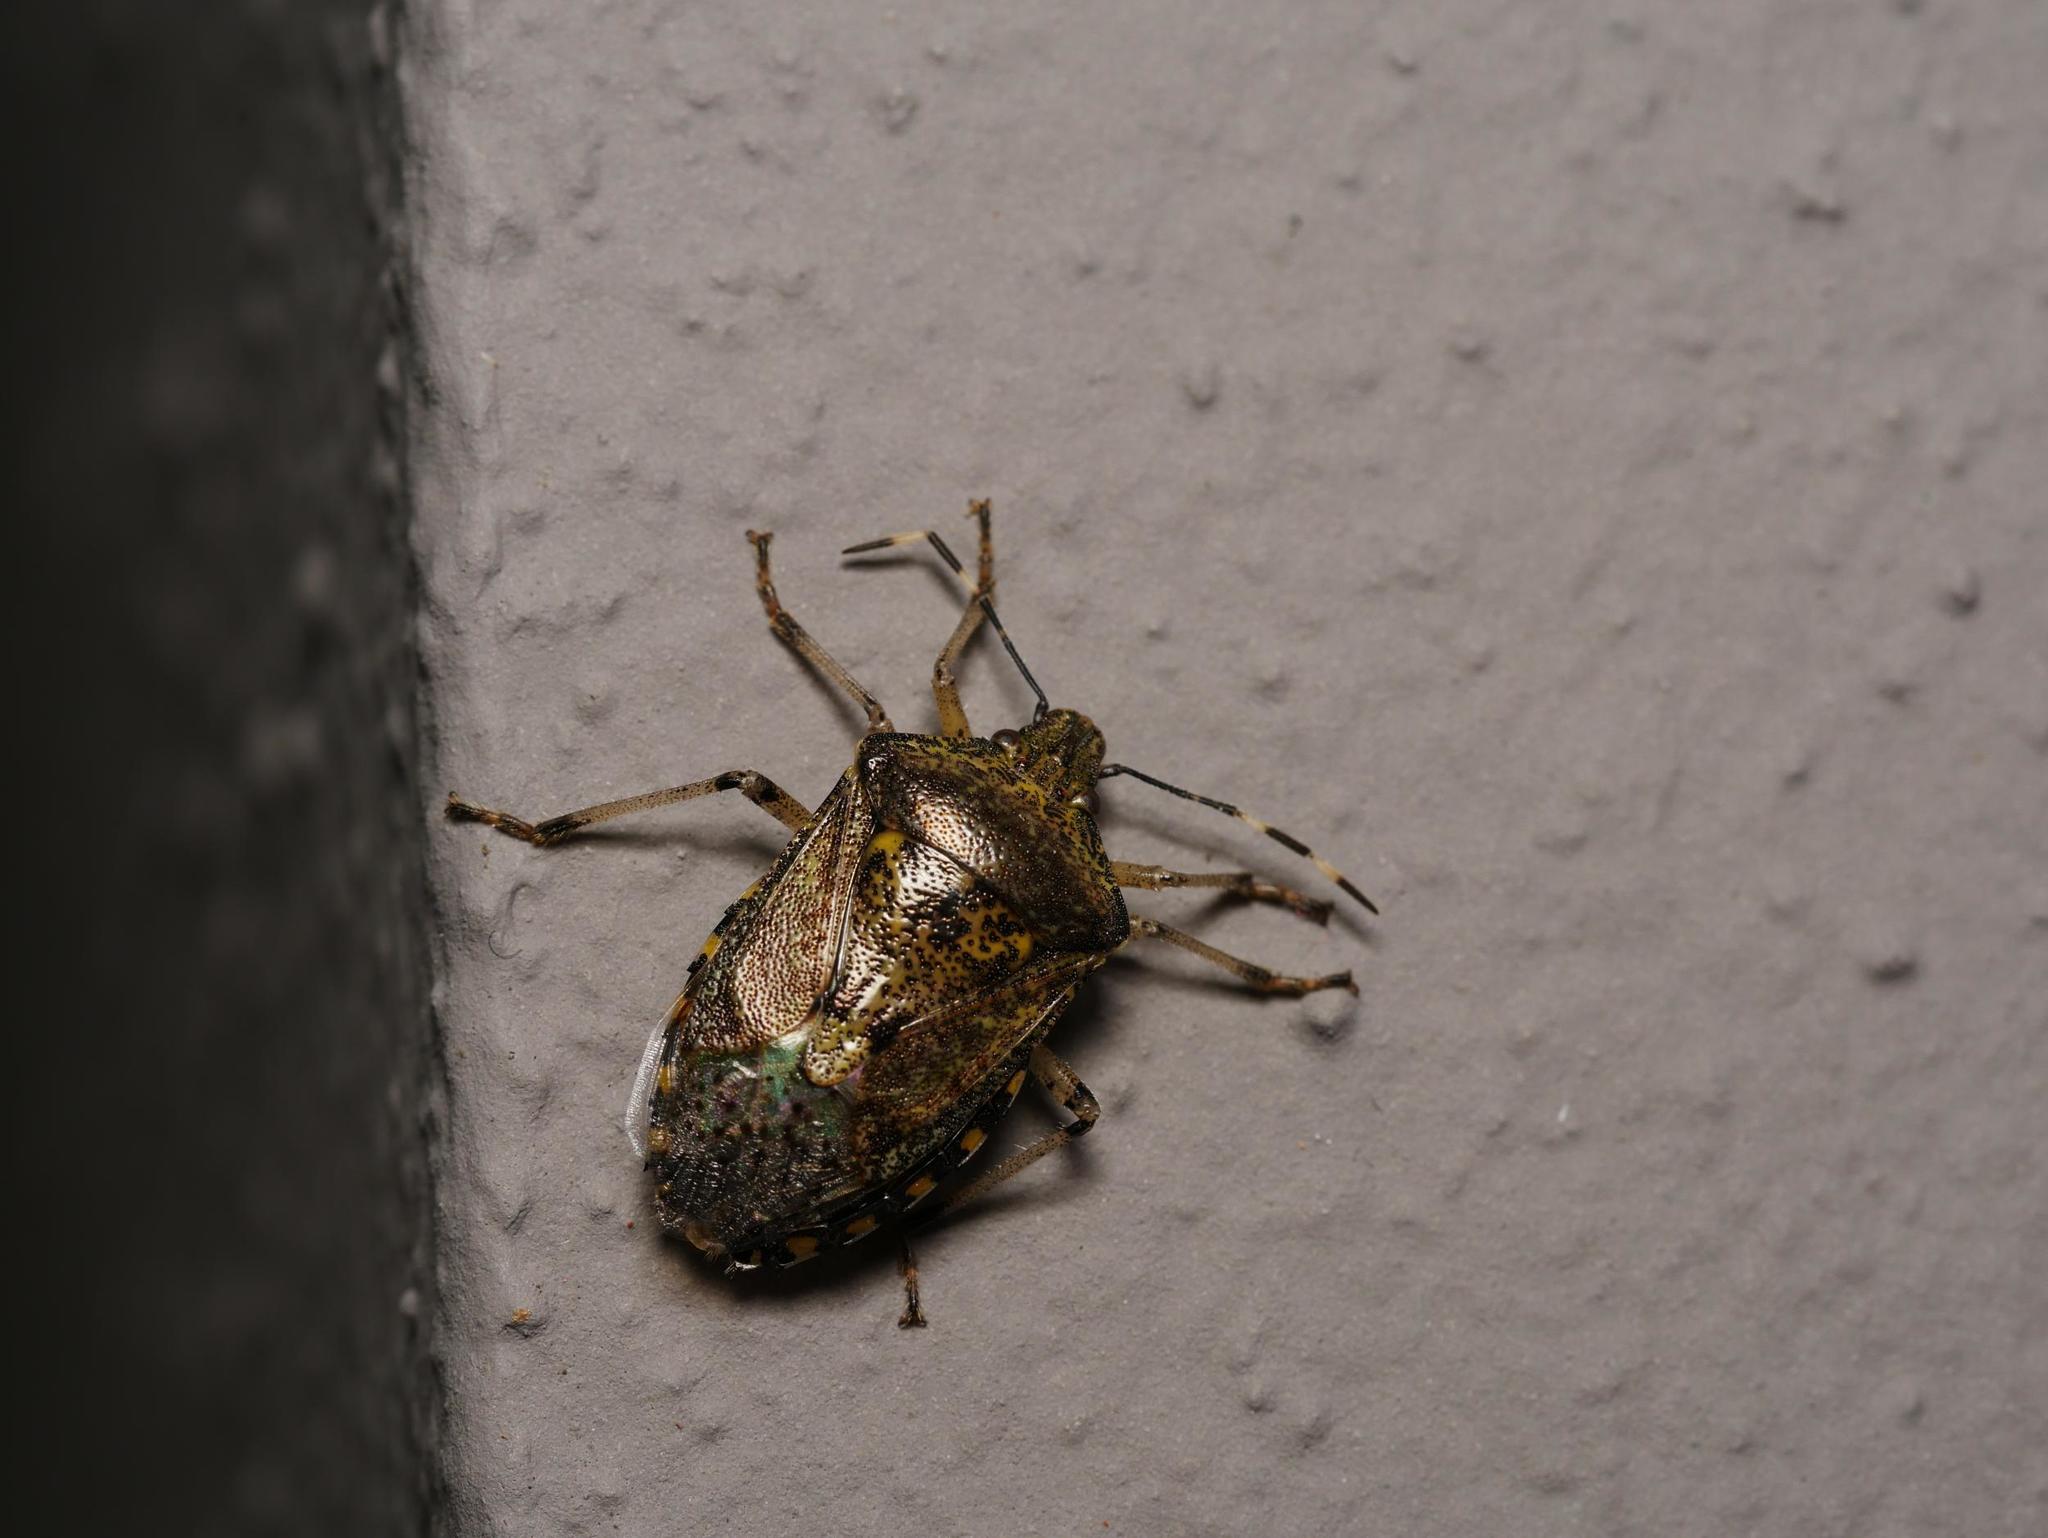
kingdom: Animalia
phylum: Arthropoda
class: Insecta
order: Hemiptera
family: Pentatomidae
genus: Rhaphigaster
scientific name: Rhaphigaster nebulosa
